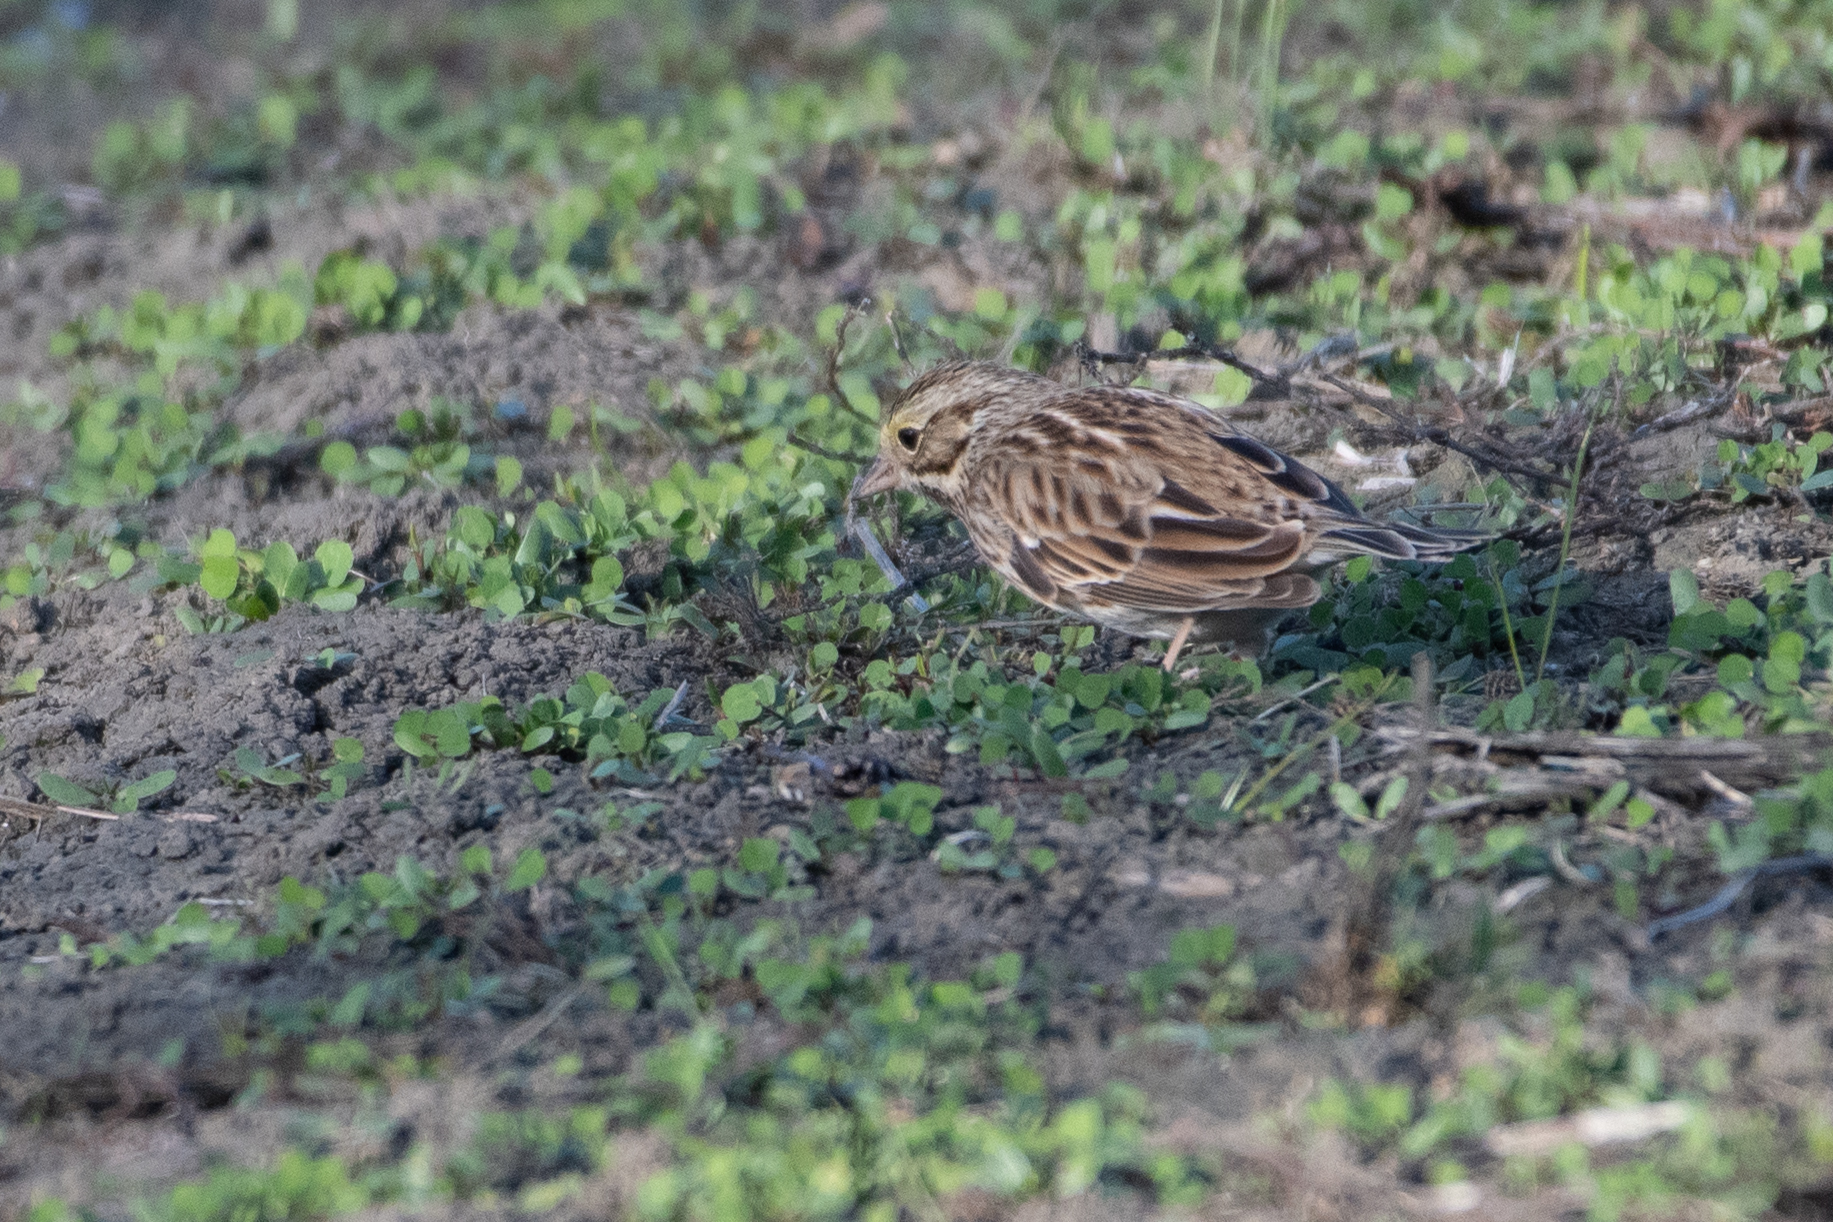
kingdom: Animalia
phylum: Chordata
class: Aves
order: Passeriformes
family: Passerellidae
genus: Passerculus
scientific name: Passerculus sandwichensis
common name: Savannah sparrow
